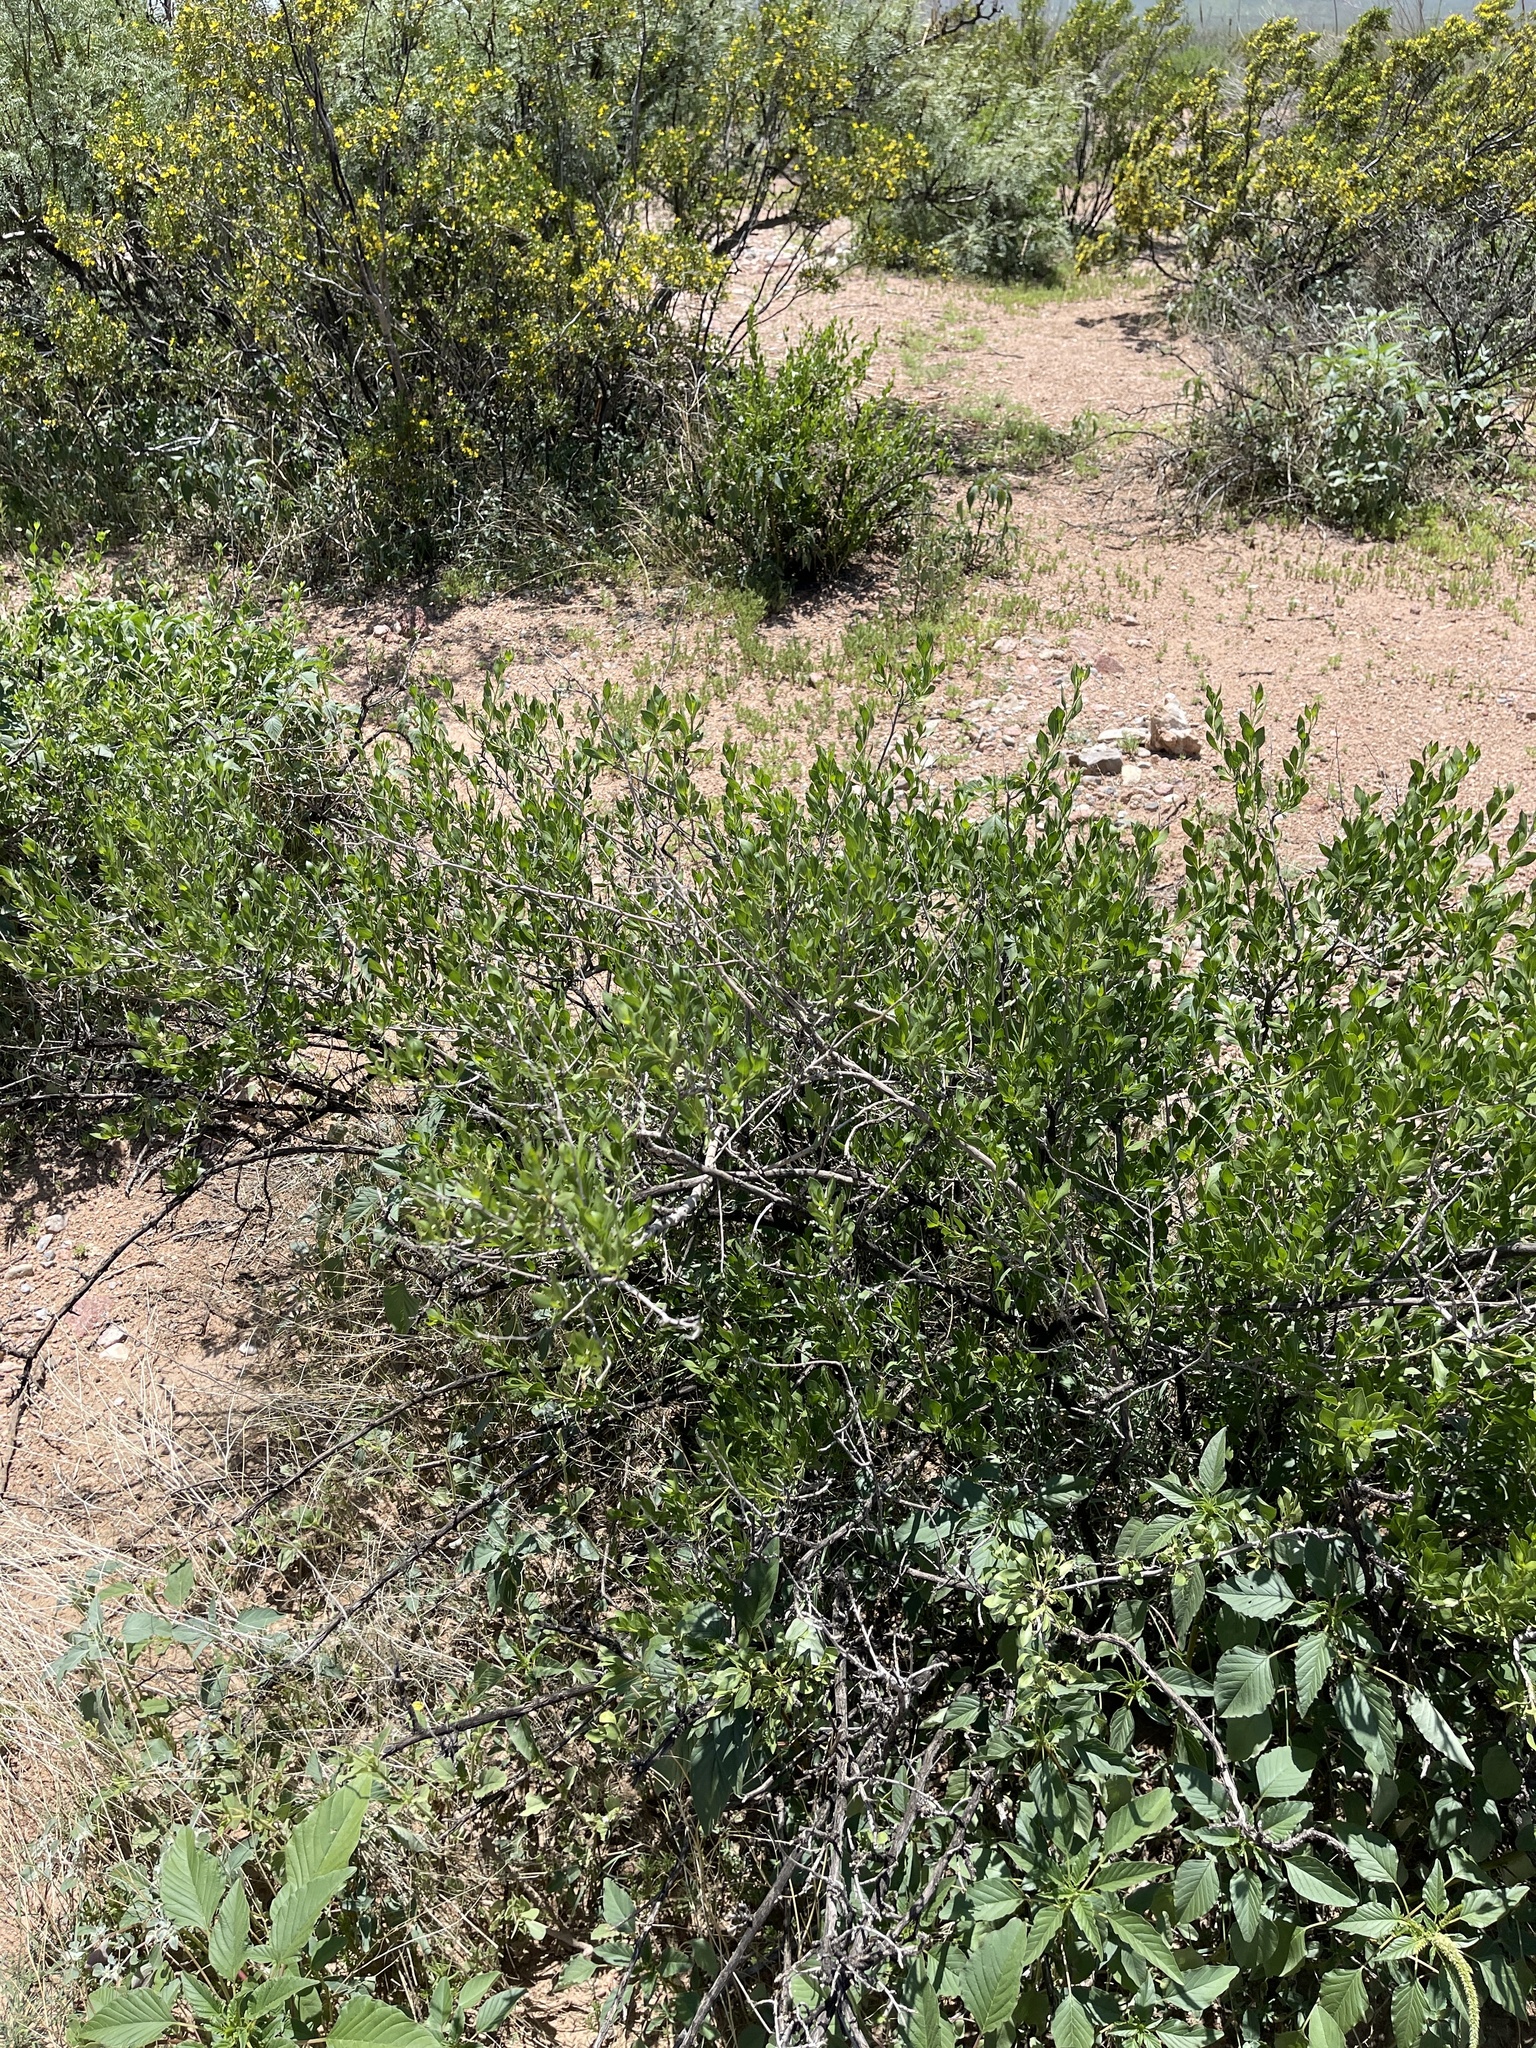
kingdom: Plantae
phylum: Tracheophyta
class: Magnoliopsida
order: Asterales
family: Asteraceae
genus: Flourensia
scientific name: Flourensia cernua
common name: Varnishbush
